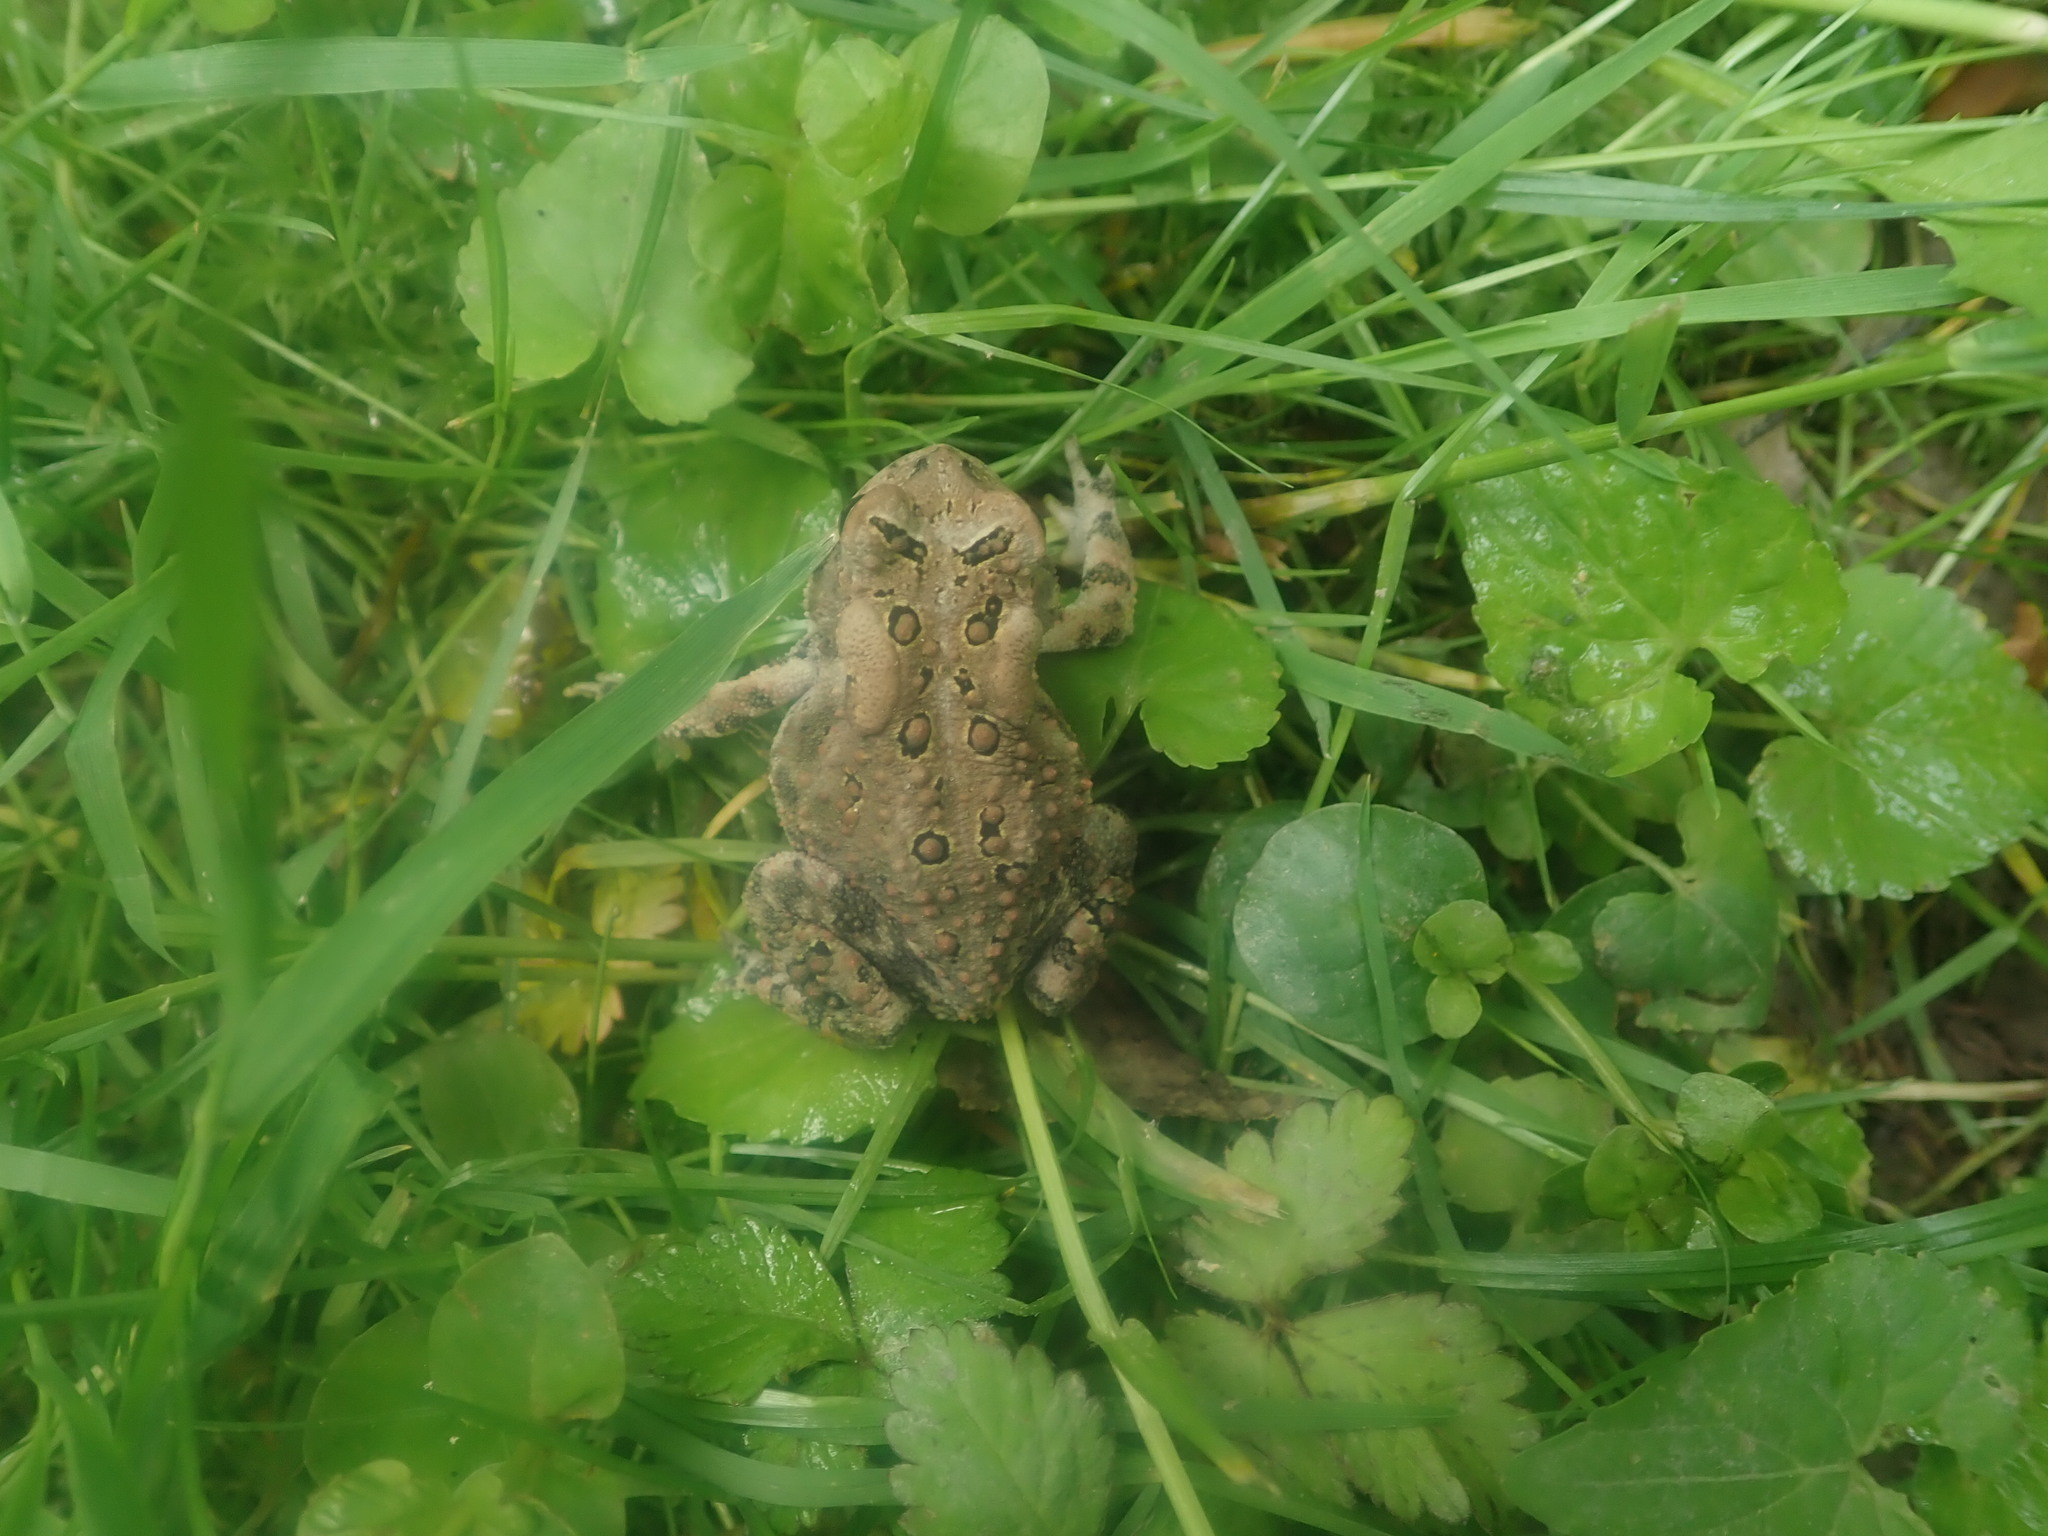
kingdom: Animalia
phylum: Chordata
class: Amphibia
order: Anura
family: Bufonidae
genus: Anaxyrus
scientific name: Anaxyrus americanus
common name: American toad
